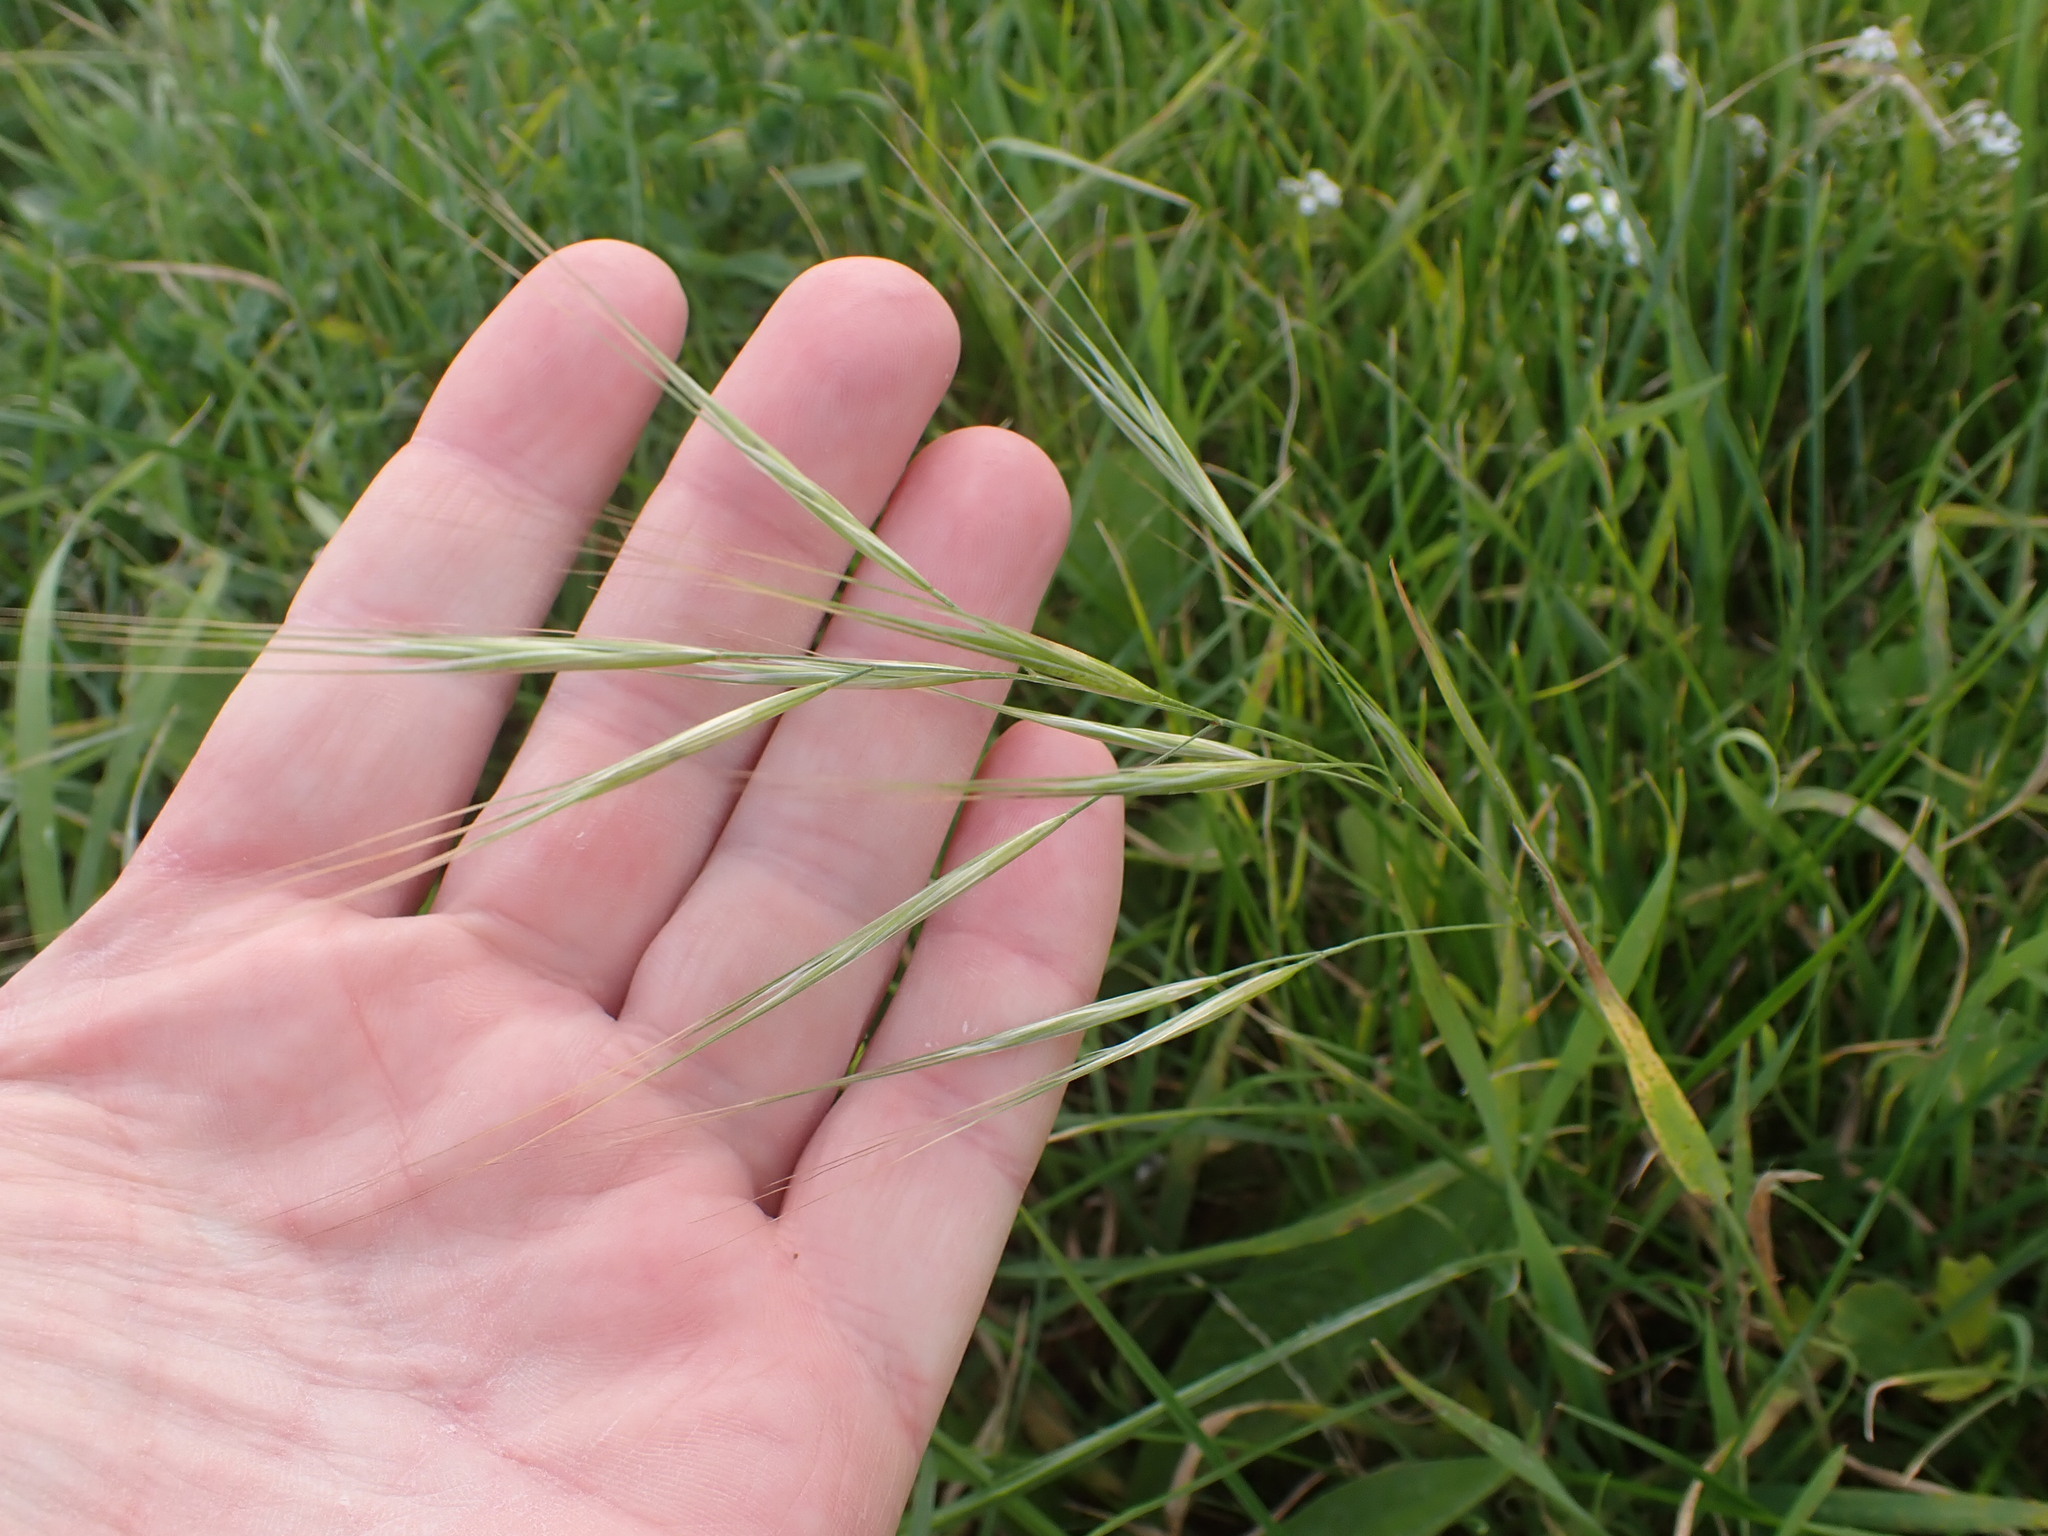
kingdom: Plantae
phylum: Tracheophyta
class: Liliopsida
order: Poales
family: Poaceae
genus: Bromus
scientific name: Bromus diandrus
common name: Ripgut brome
